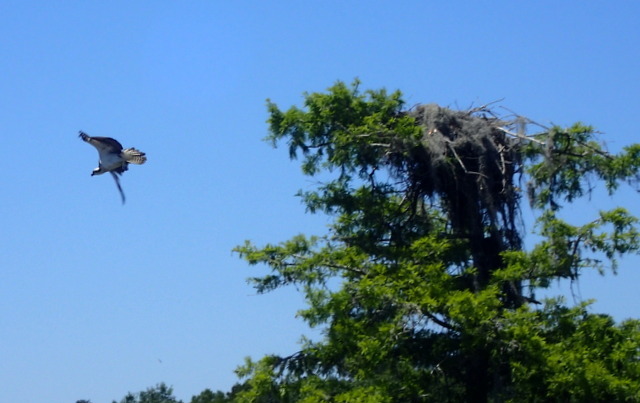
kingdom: Animalia
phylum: Chordata
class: Aves
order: Accipitriformes
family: Pandionidae
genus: Pandion
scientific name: Pandion haliaetus
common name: Osprey
